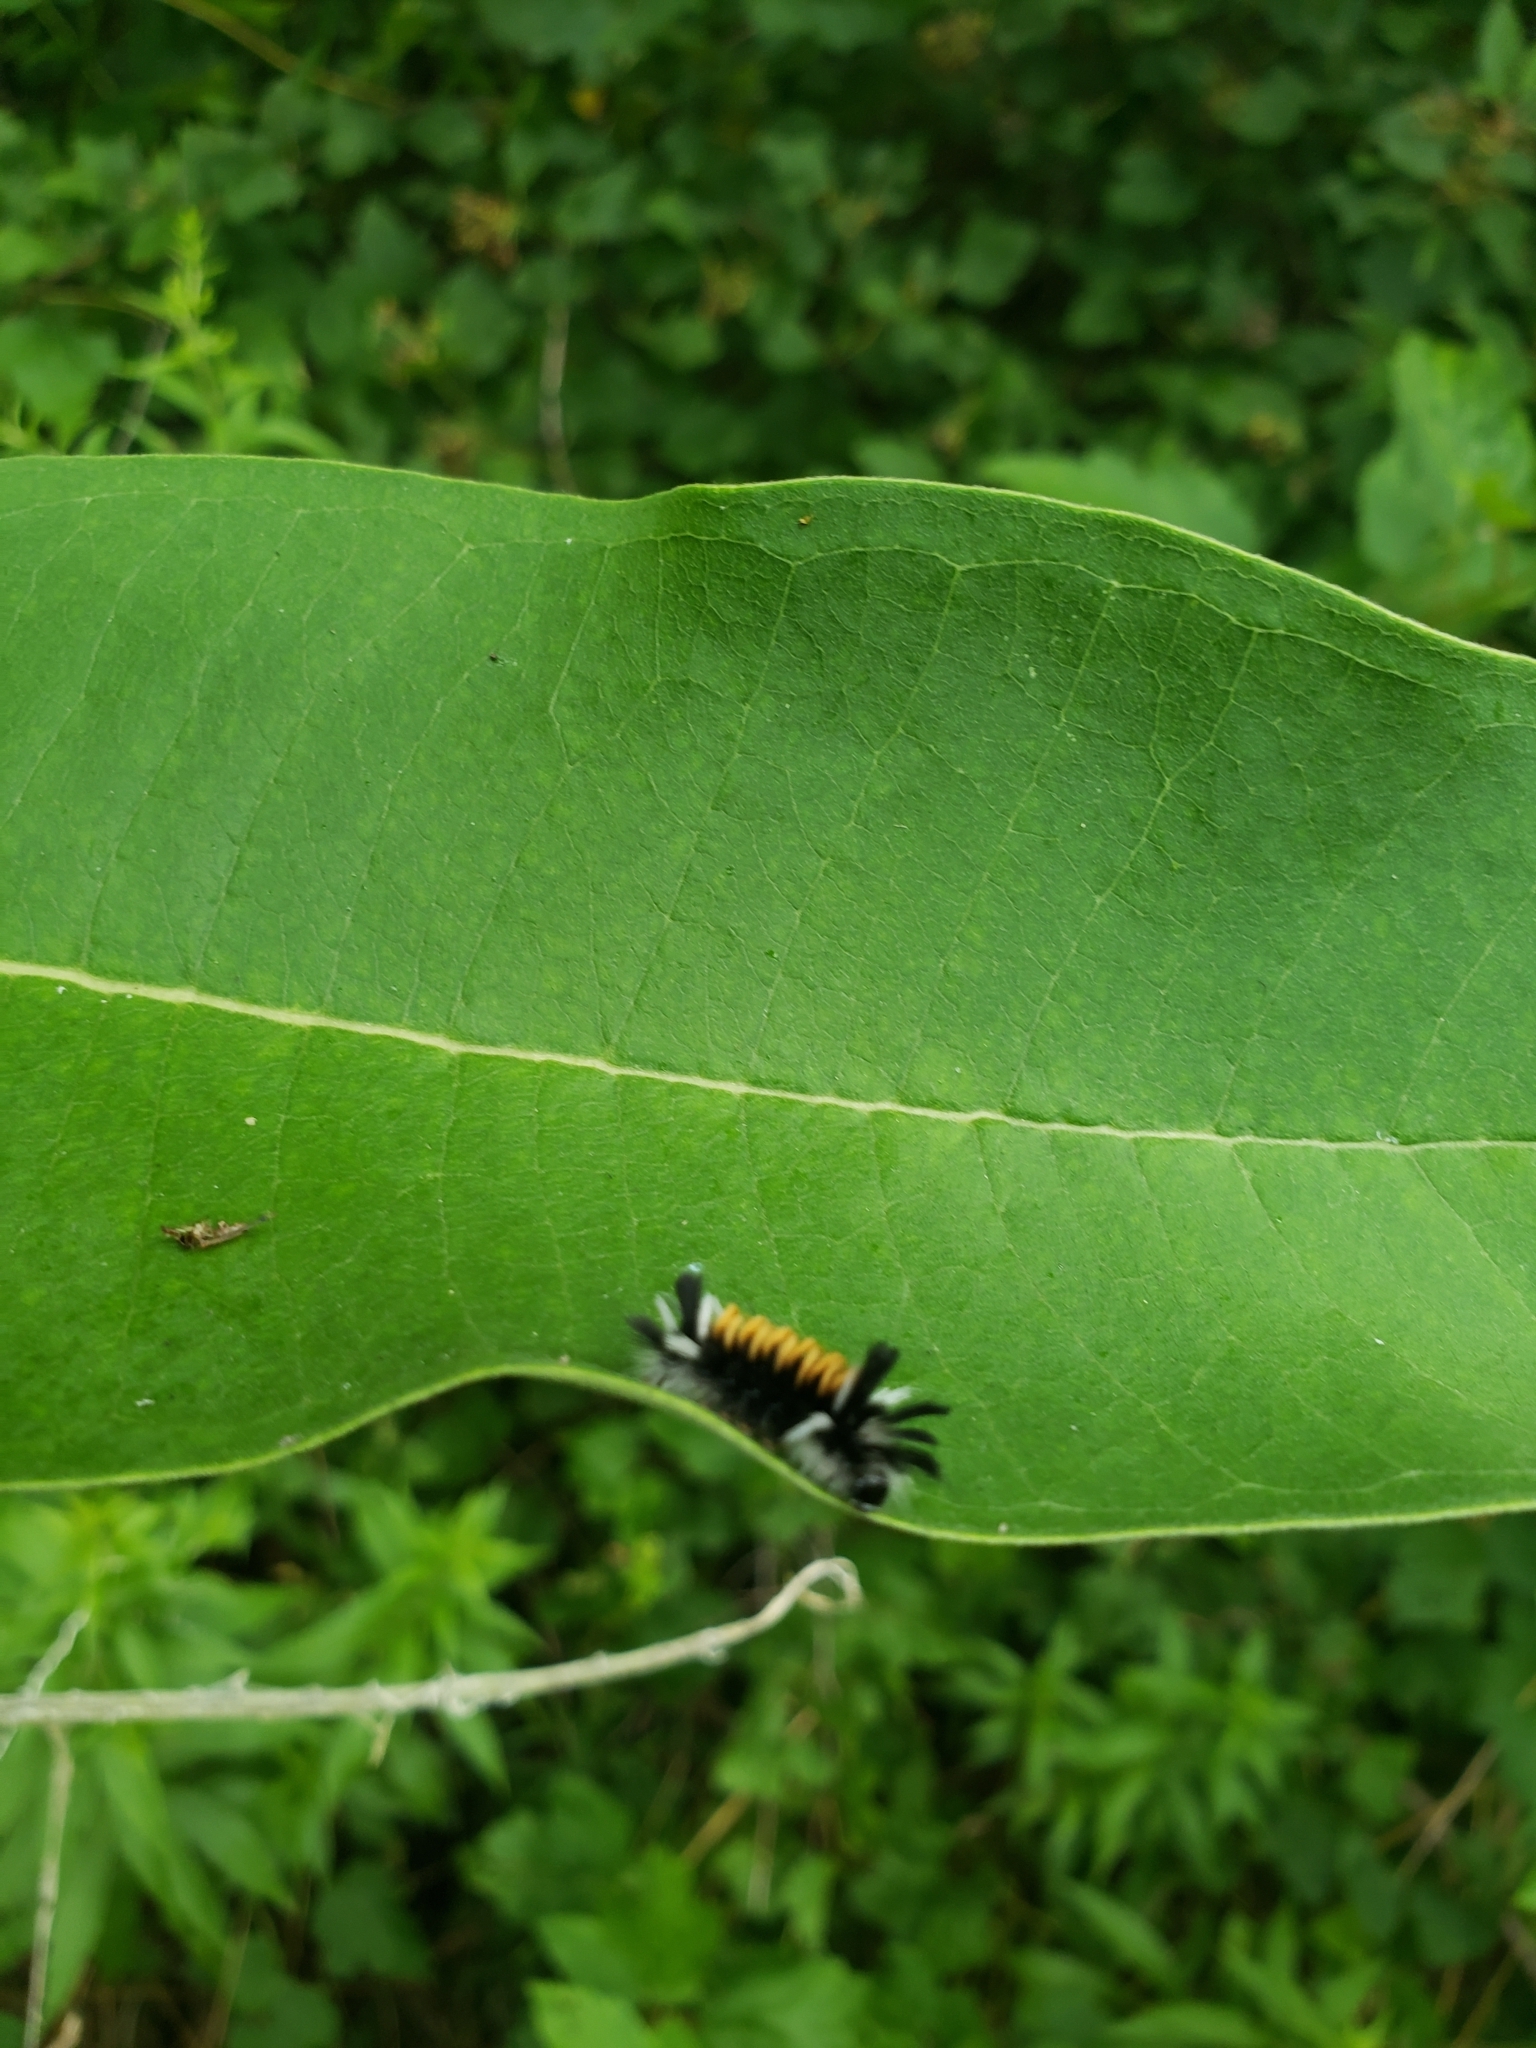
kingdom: Animalia
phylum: Arthropoda
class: Insecta
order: Lepidoptera
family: Erebidae
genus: Euchaetes
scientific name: Euchaetes egle
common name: Milkweed tussock moth
